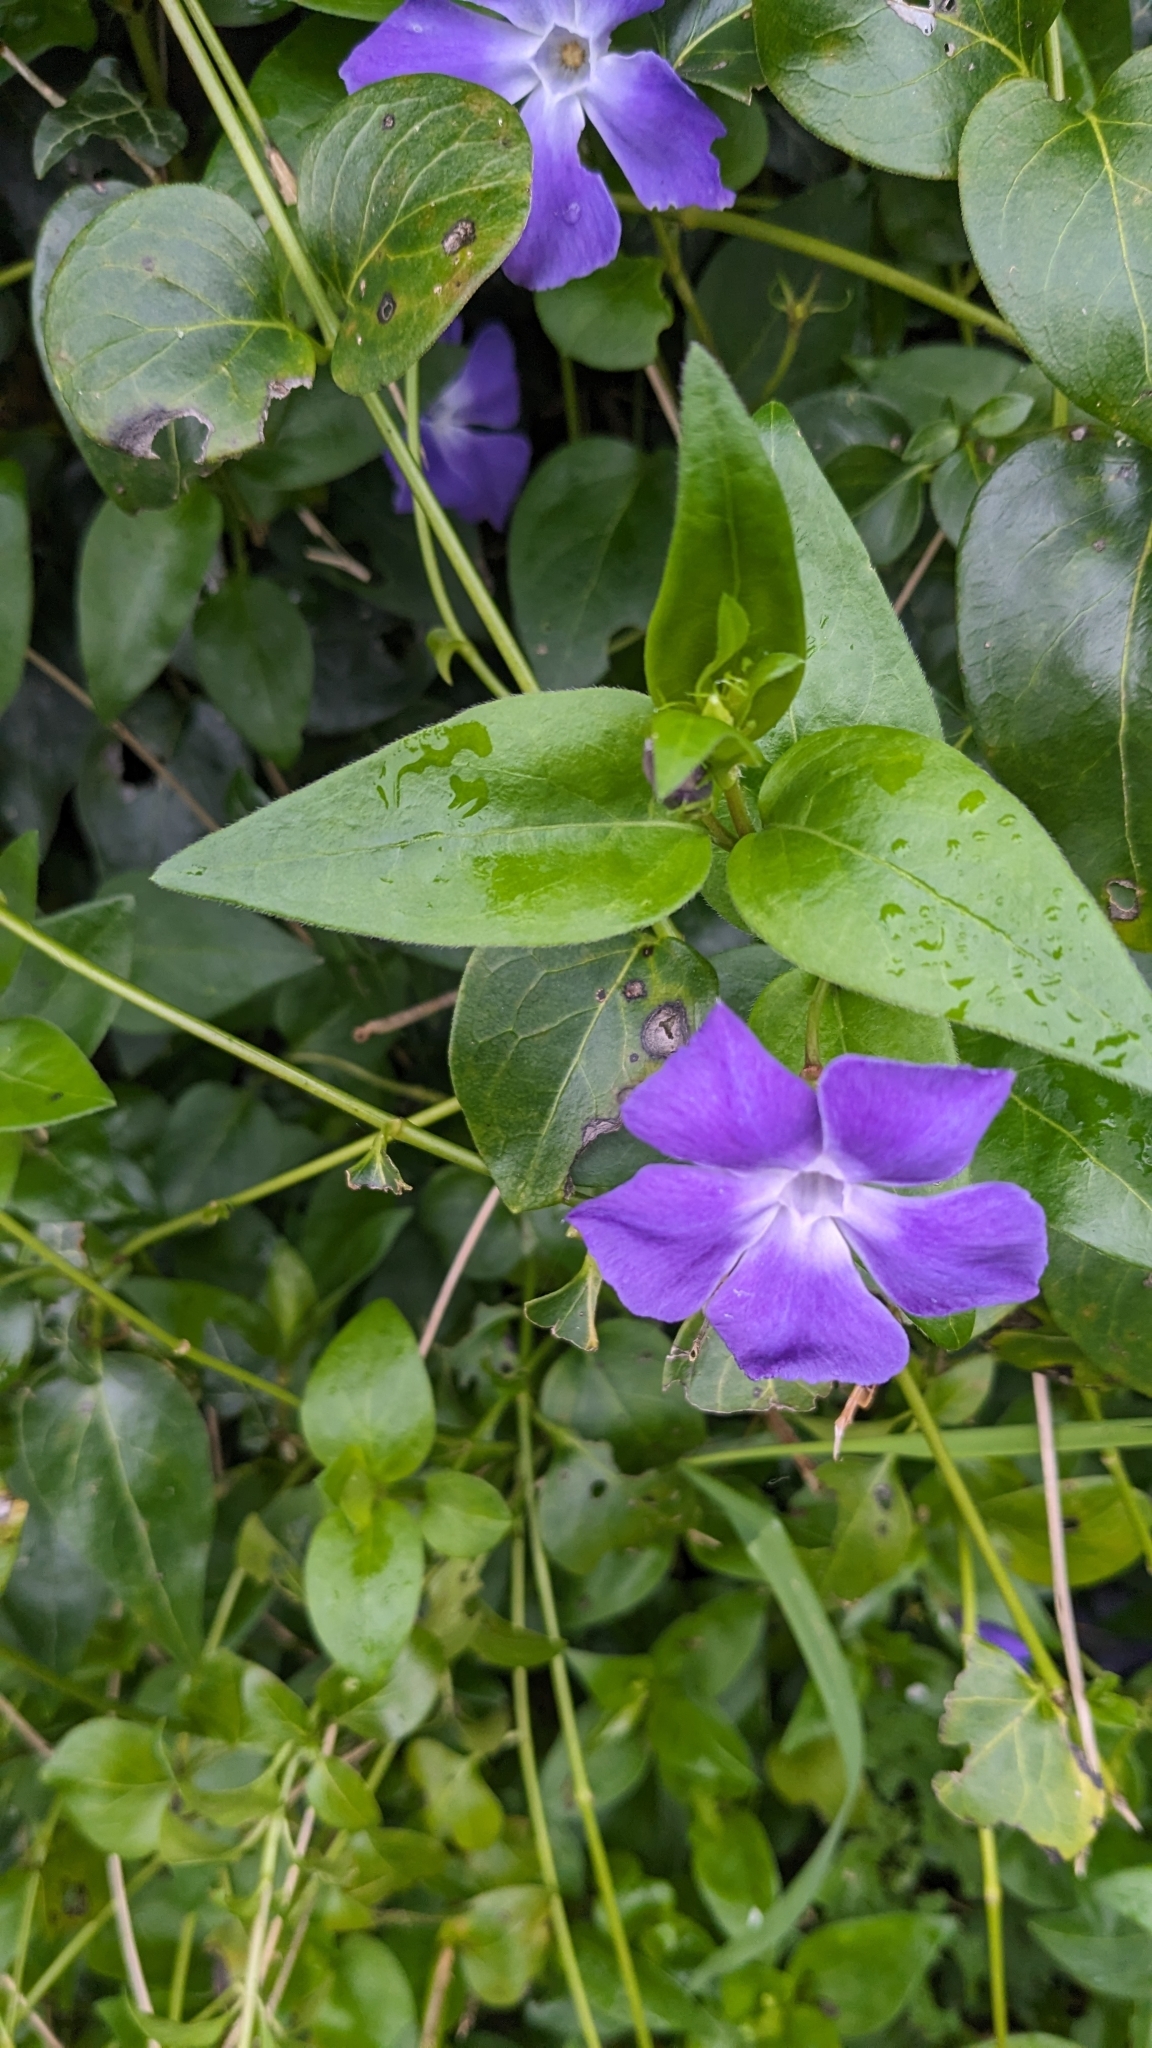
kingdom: Plantae
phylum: Tracheophyta
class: Magnoliopsida
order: Gentianales
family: Apocynaceae
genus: Vinca
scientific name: Vinca major
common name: Greater periwinkle
